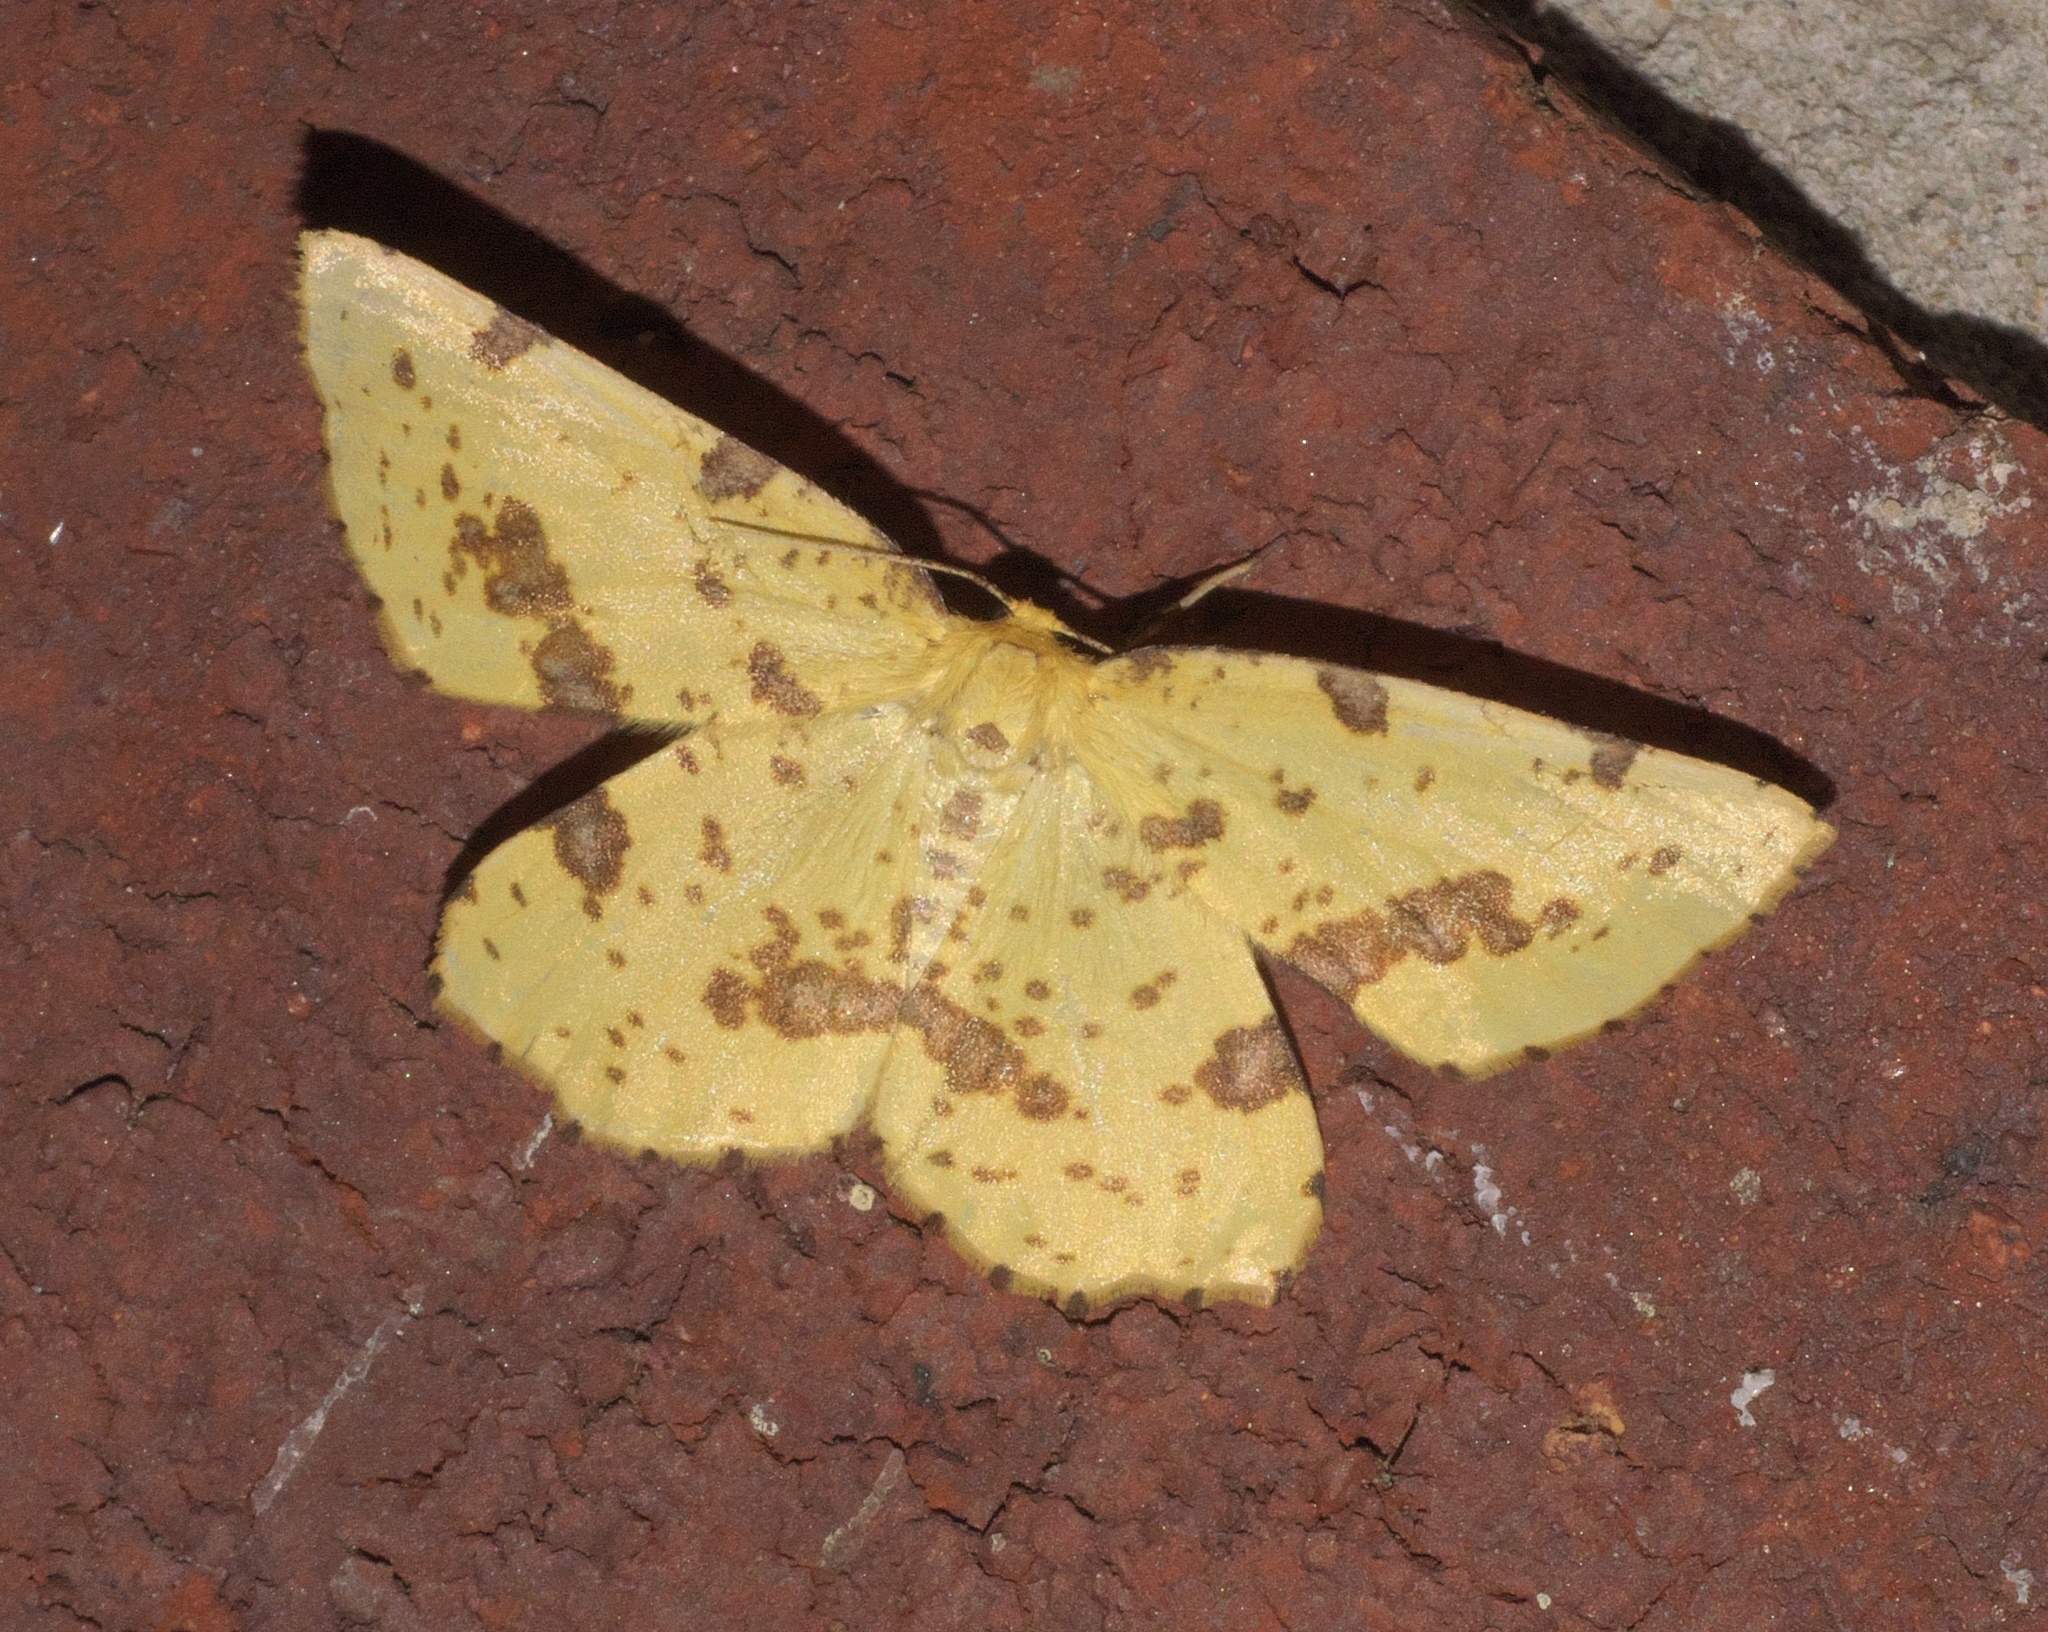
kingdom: Animalia
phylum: Arthropoda
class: Insecta
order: Lepidoptera
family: Geometridae
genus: Xanthotype
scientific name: Xanthotype
